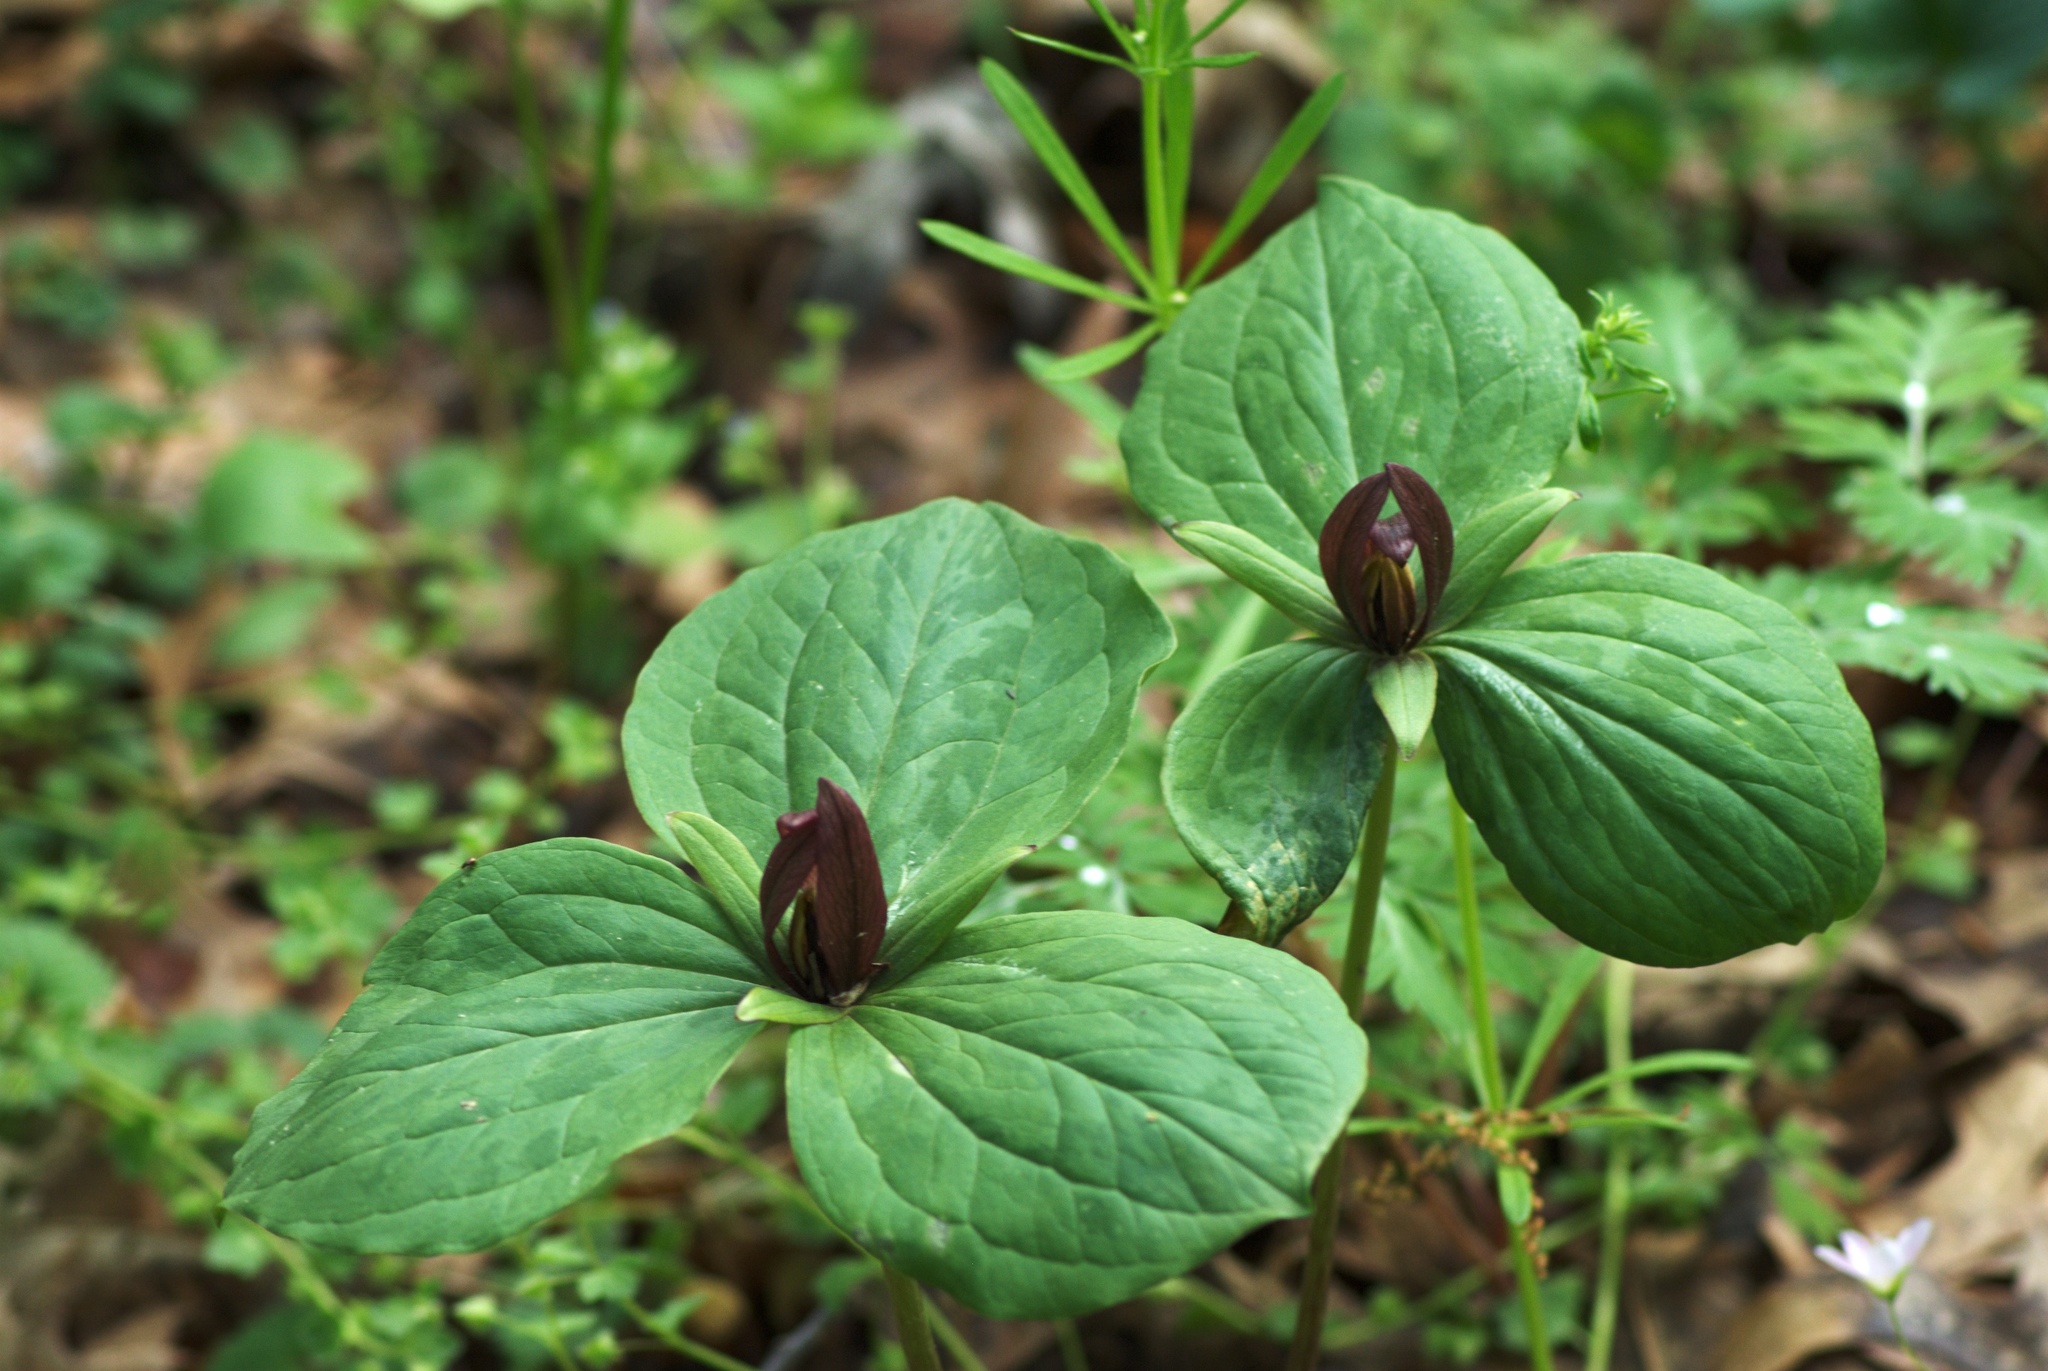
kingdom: Plantae
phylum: Tracheophyta
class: Liliopsida
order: Liliales
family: Melanthiaceae
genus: Trillium
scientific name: Trillium sessile
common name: Sessile trillium
